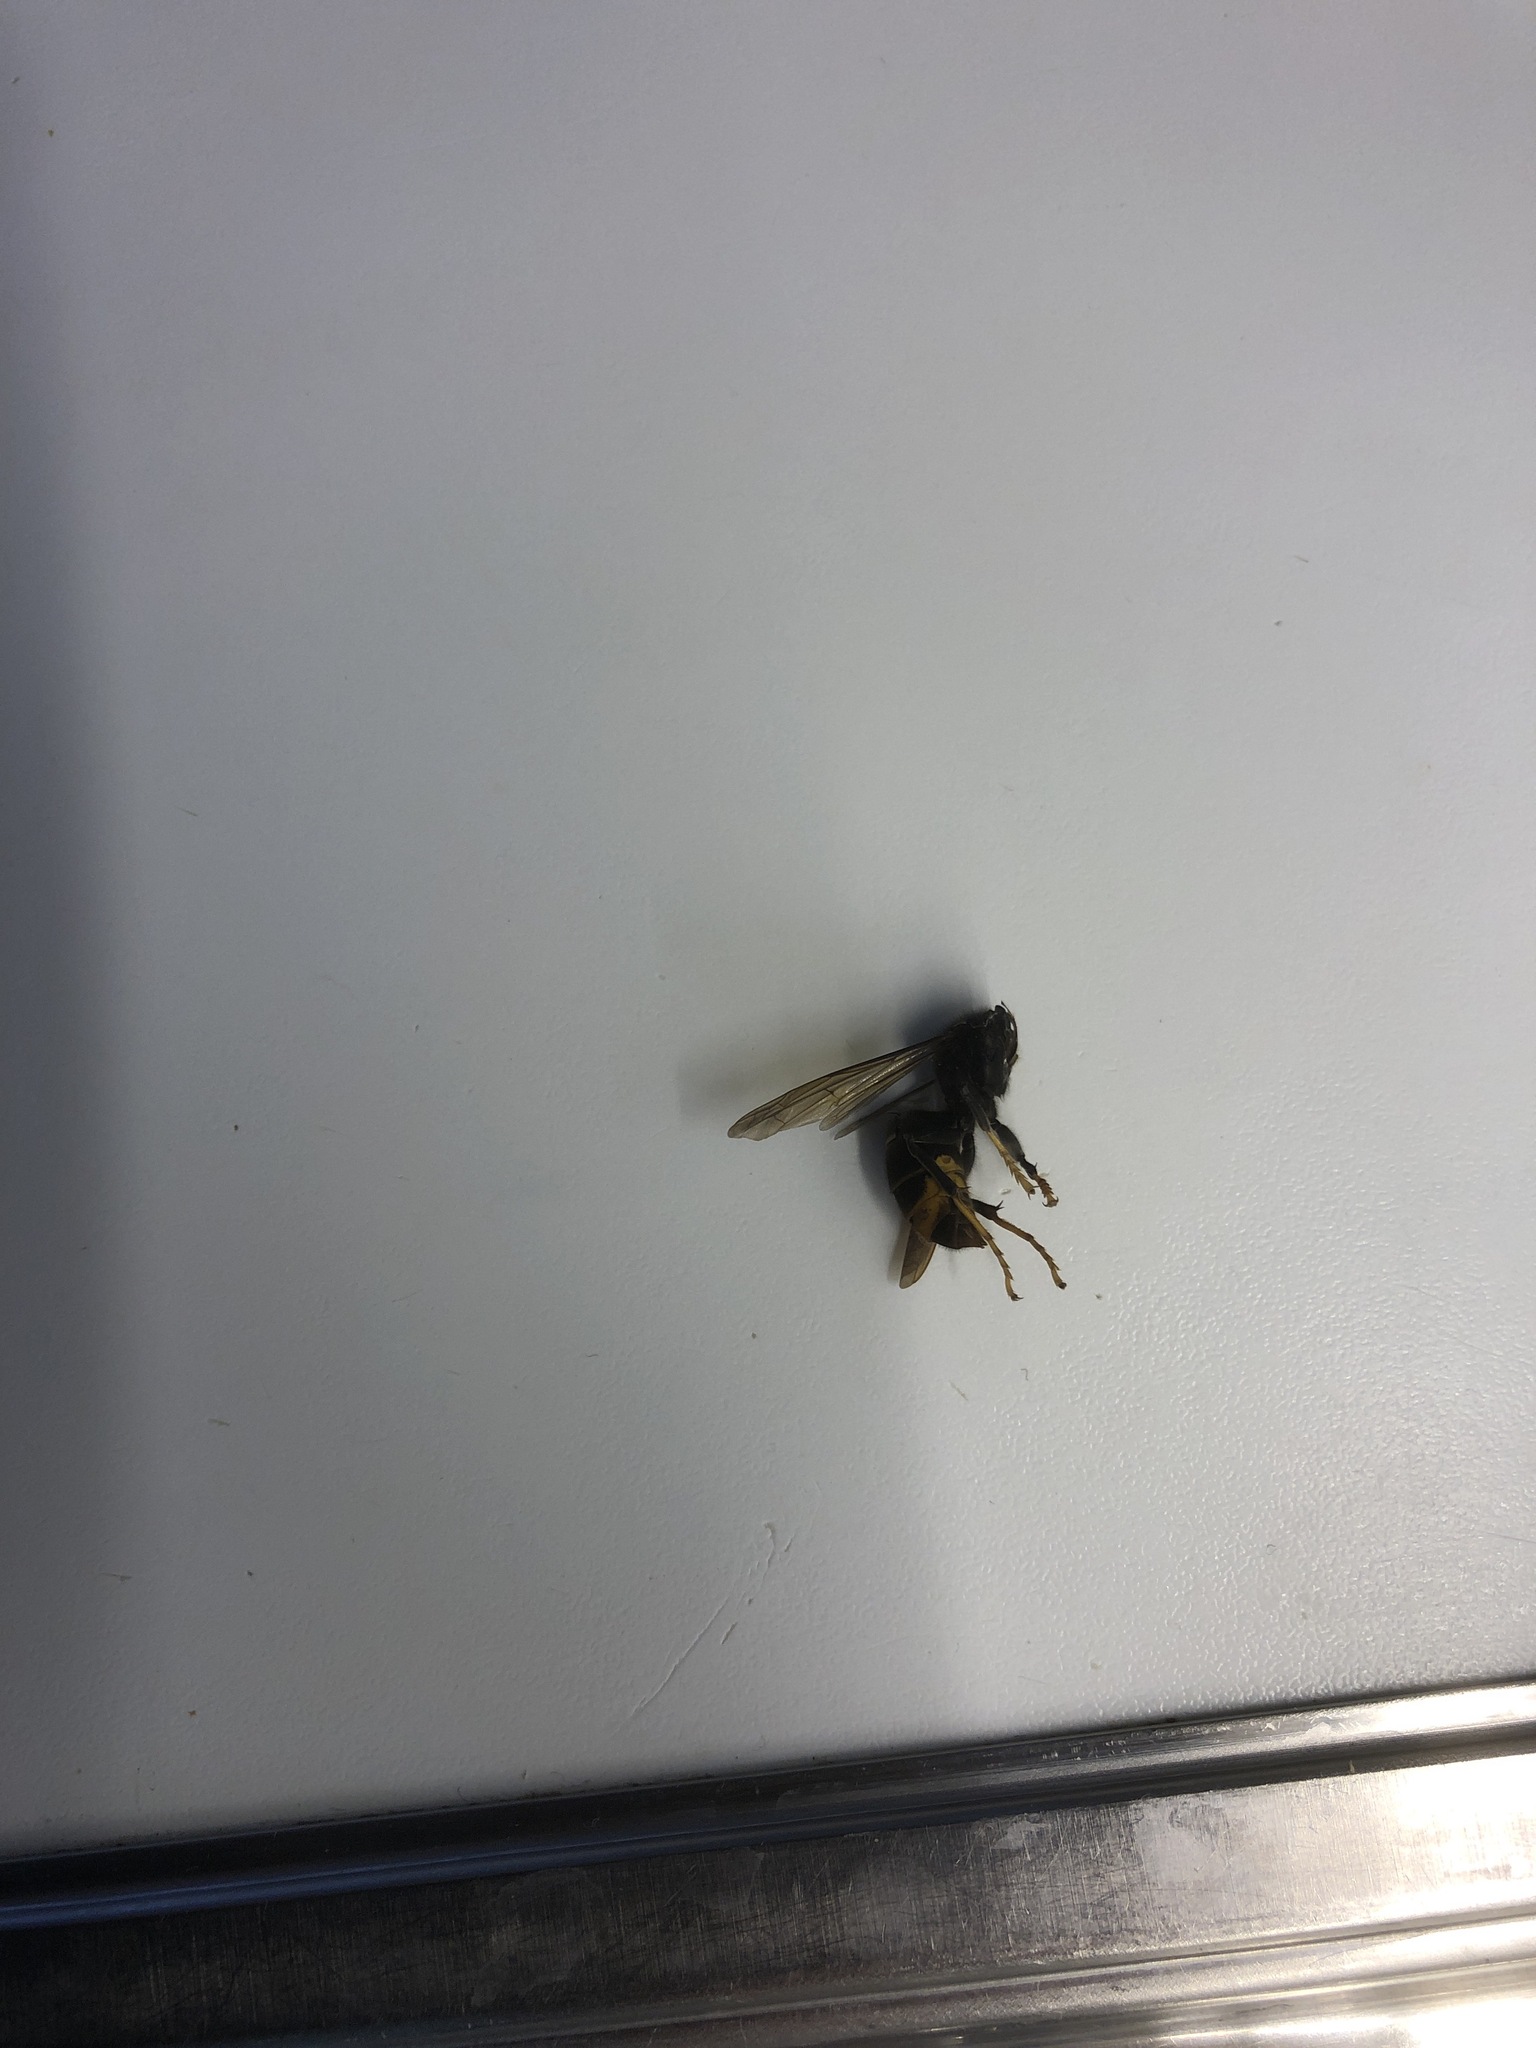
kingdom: Animalia
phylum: Arthropoda
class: Insecta
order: Hymenoptera
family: Vespidae
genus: Vespa
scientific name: Vespa velutina
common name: Asian hornet
